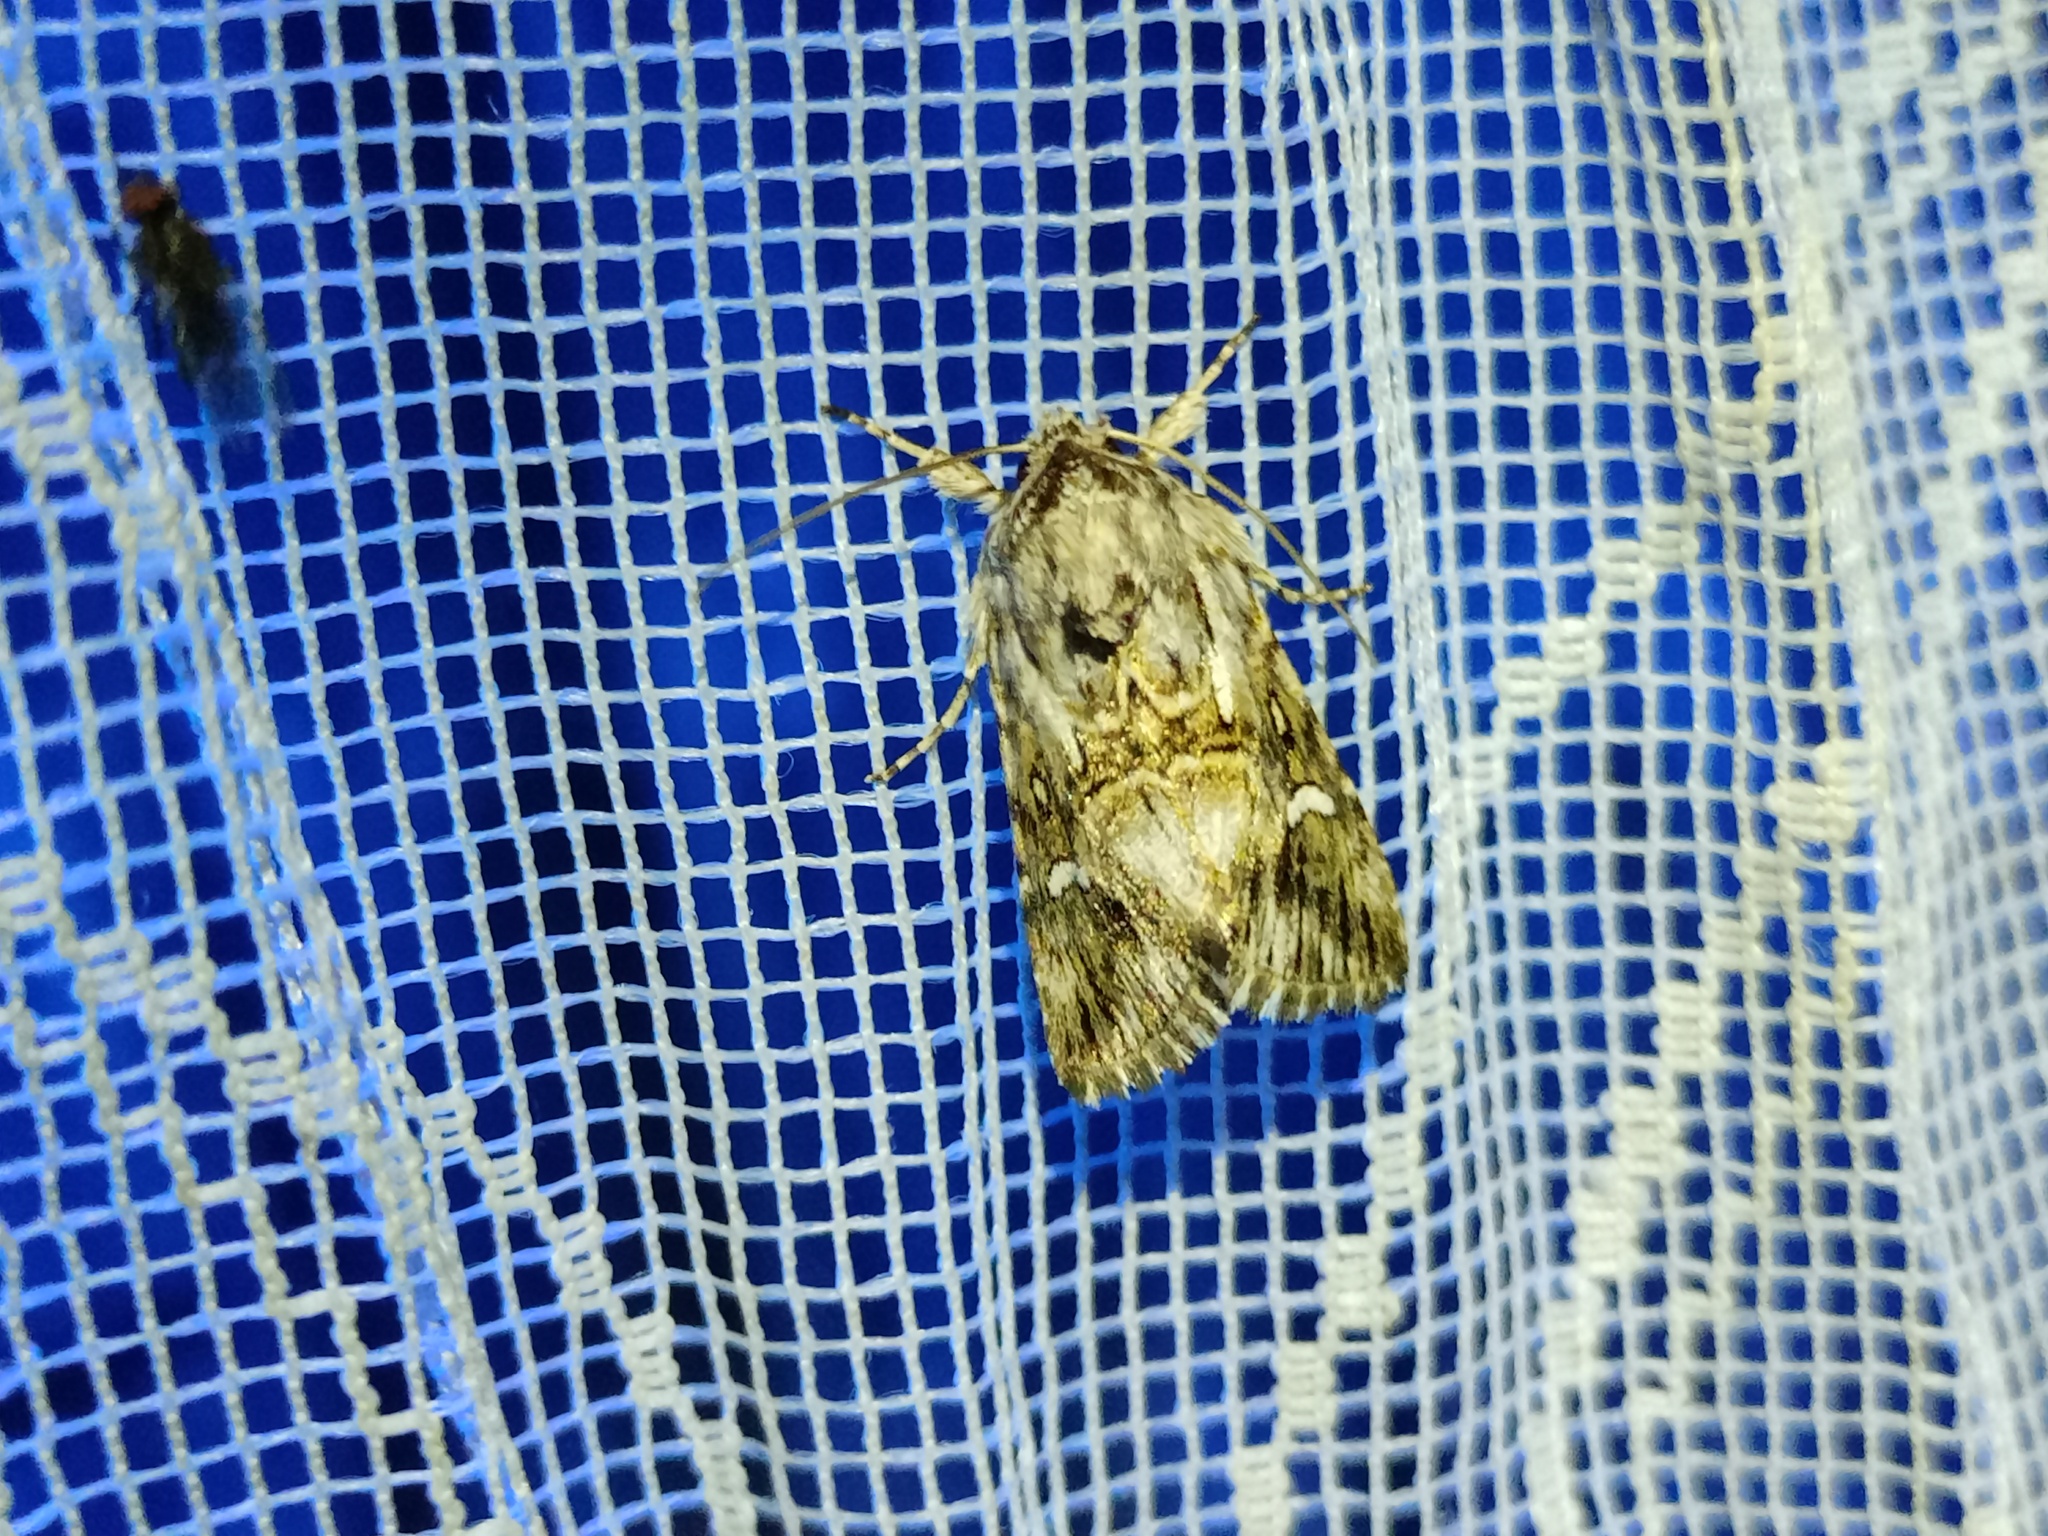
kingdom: Animalia
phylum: Arthropoda
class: Insecta
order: Lepidoptera
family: Noctuidae
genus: Calophasia
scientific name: Calophasia lunula
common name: Toadflax brocade
